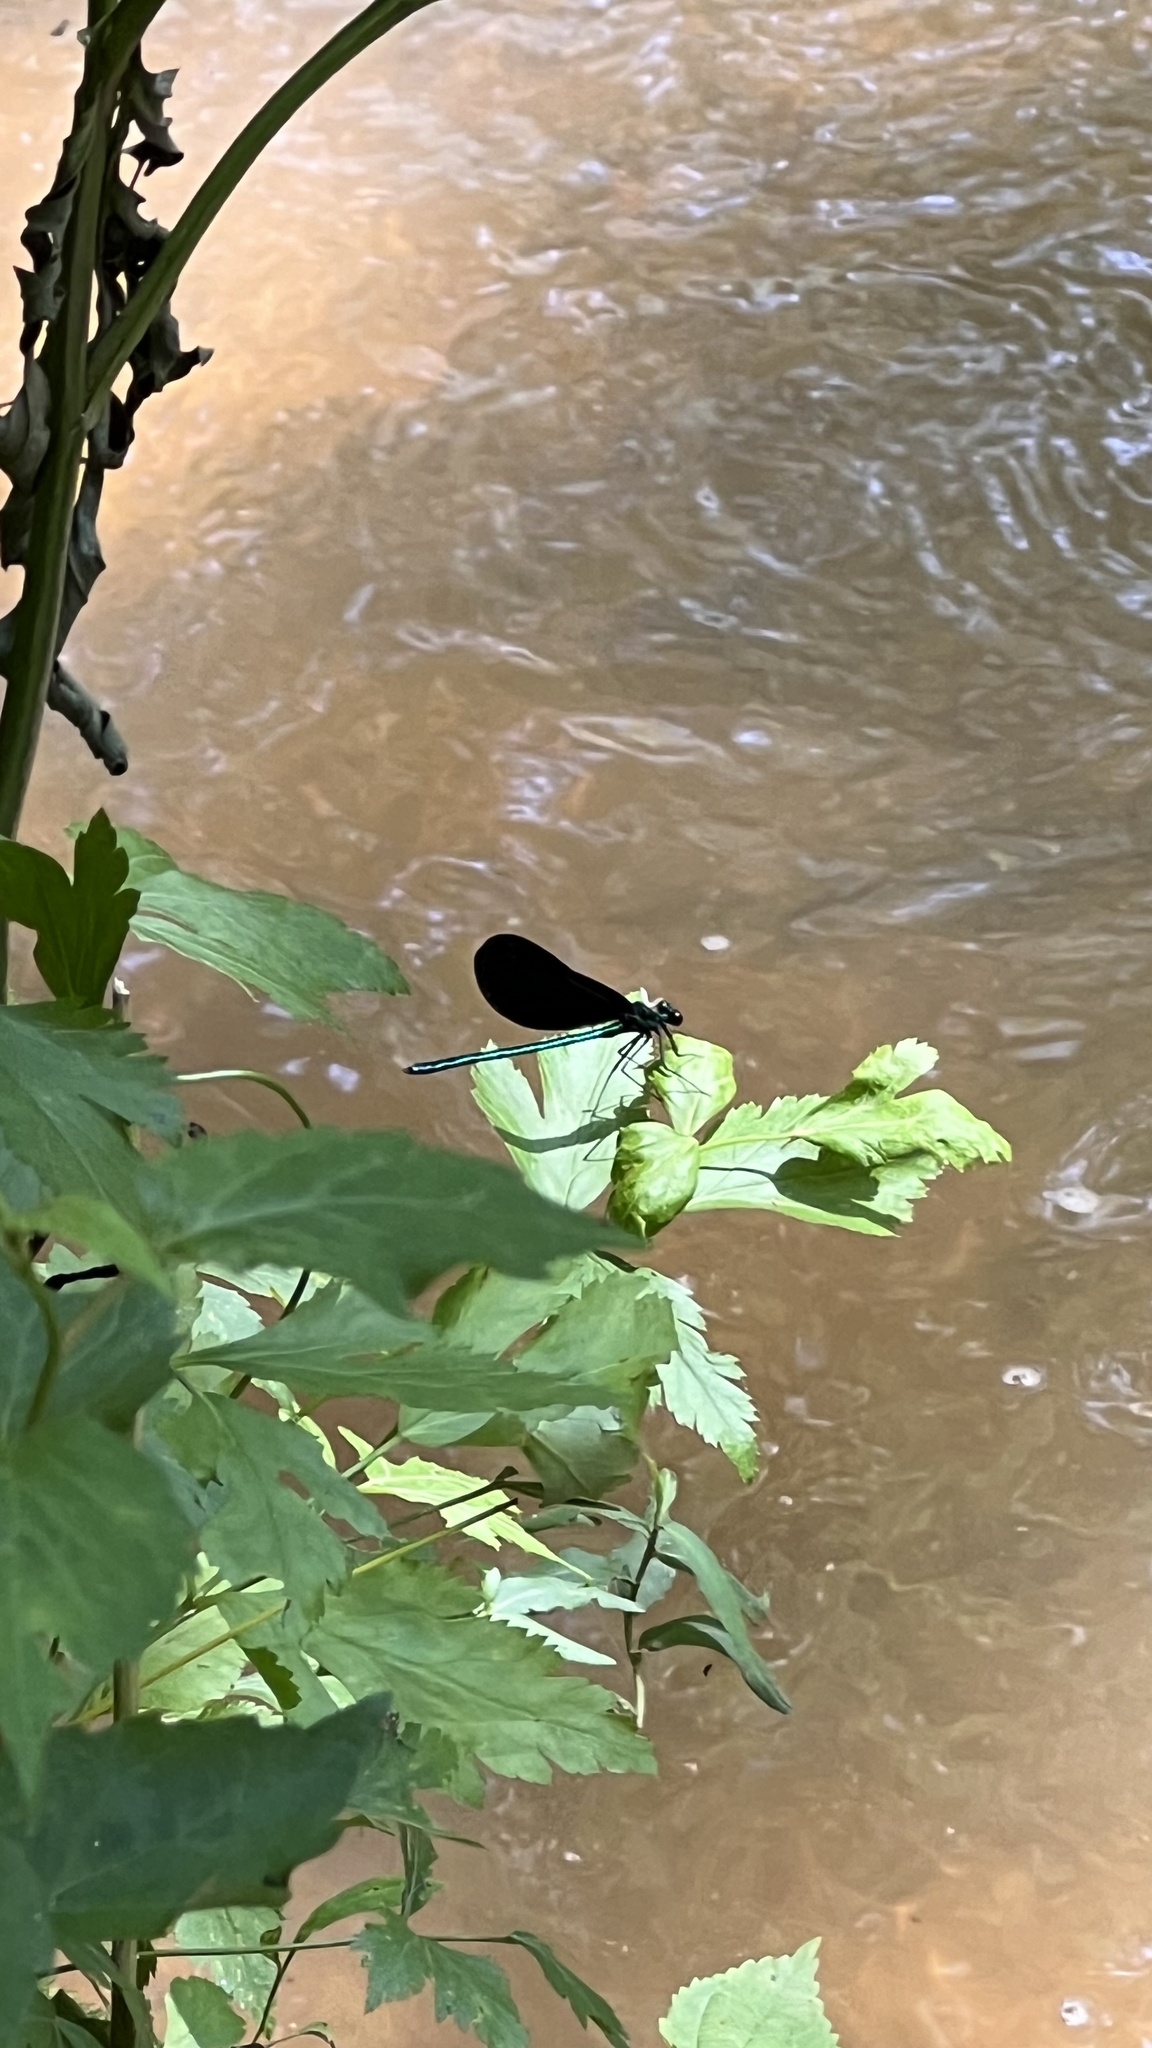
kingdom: Animalia
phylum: Arthropoda
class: Insecta
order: Odonata
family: Calopterygidae
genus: Calopteryx
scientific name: Calopteryx maculata
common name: Ebony jewelwing
